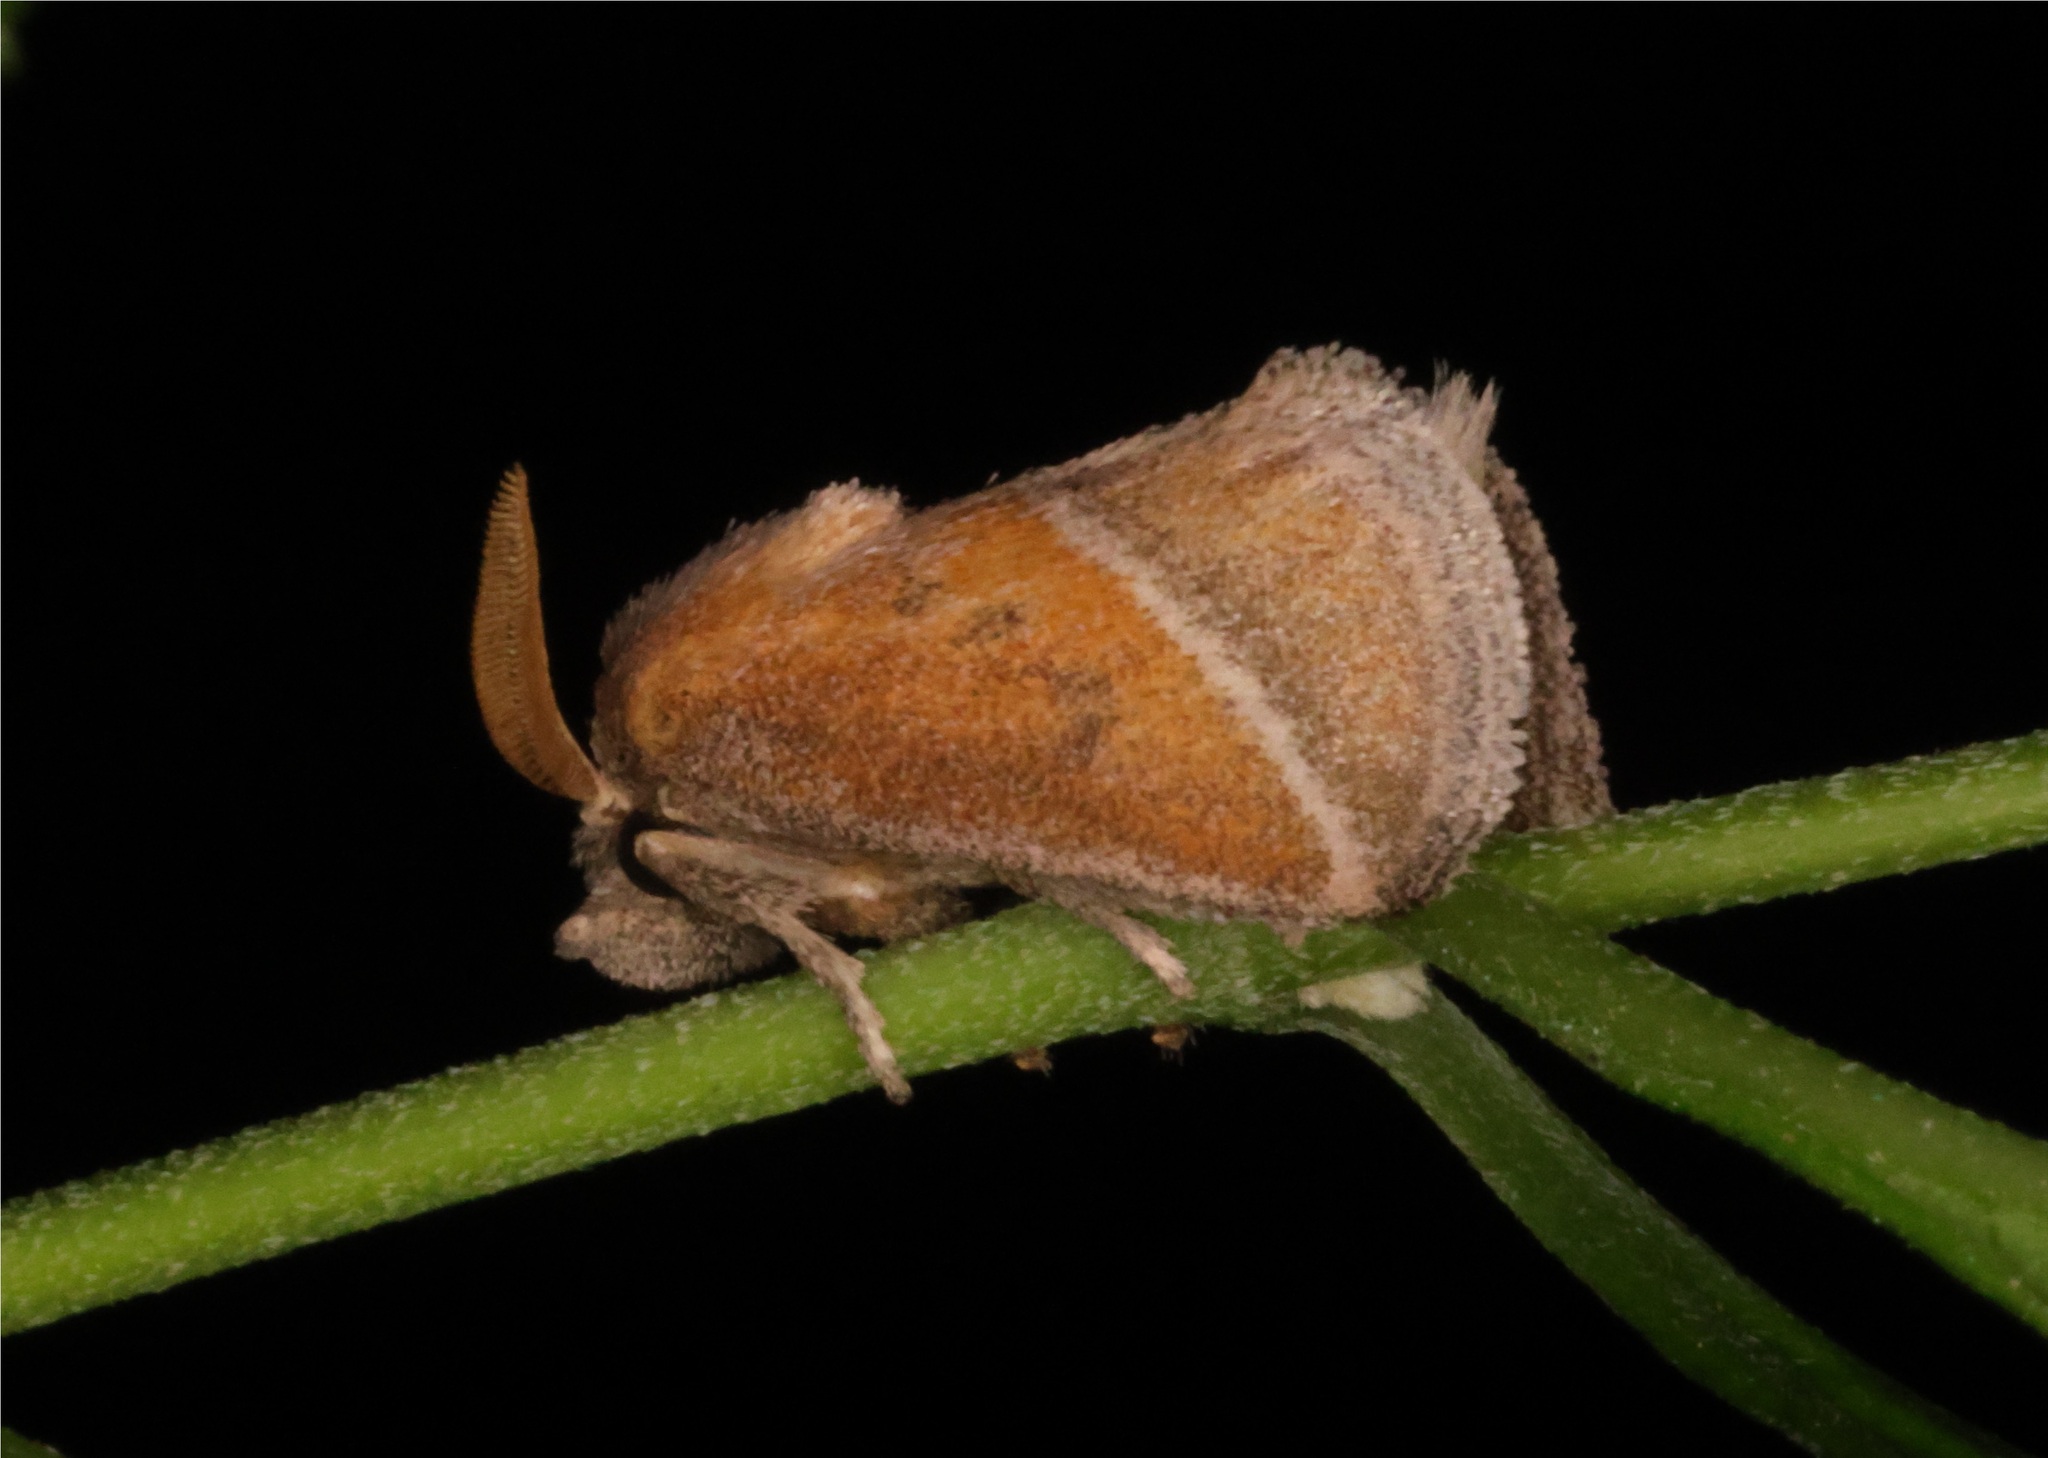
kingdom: Animalia
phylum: Arthropoda
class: Insecta
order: Lepidoptera
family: Limacodidae
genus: Oxyplax
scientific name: Oxyplax pallivitta
